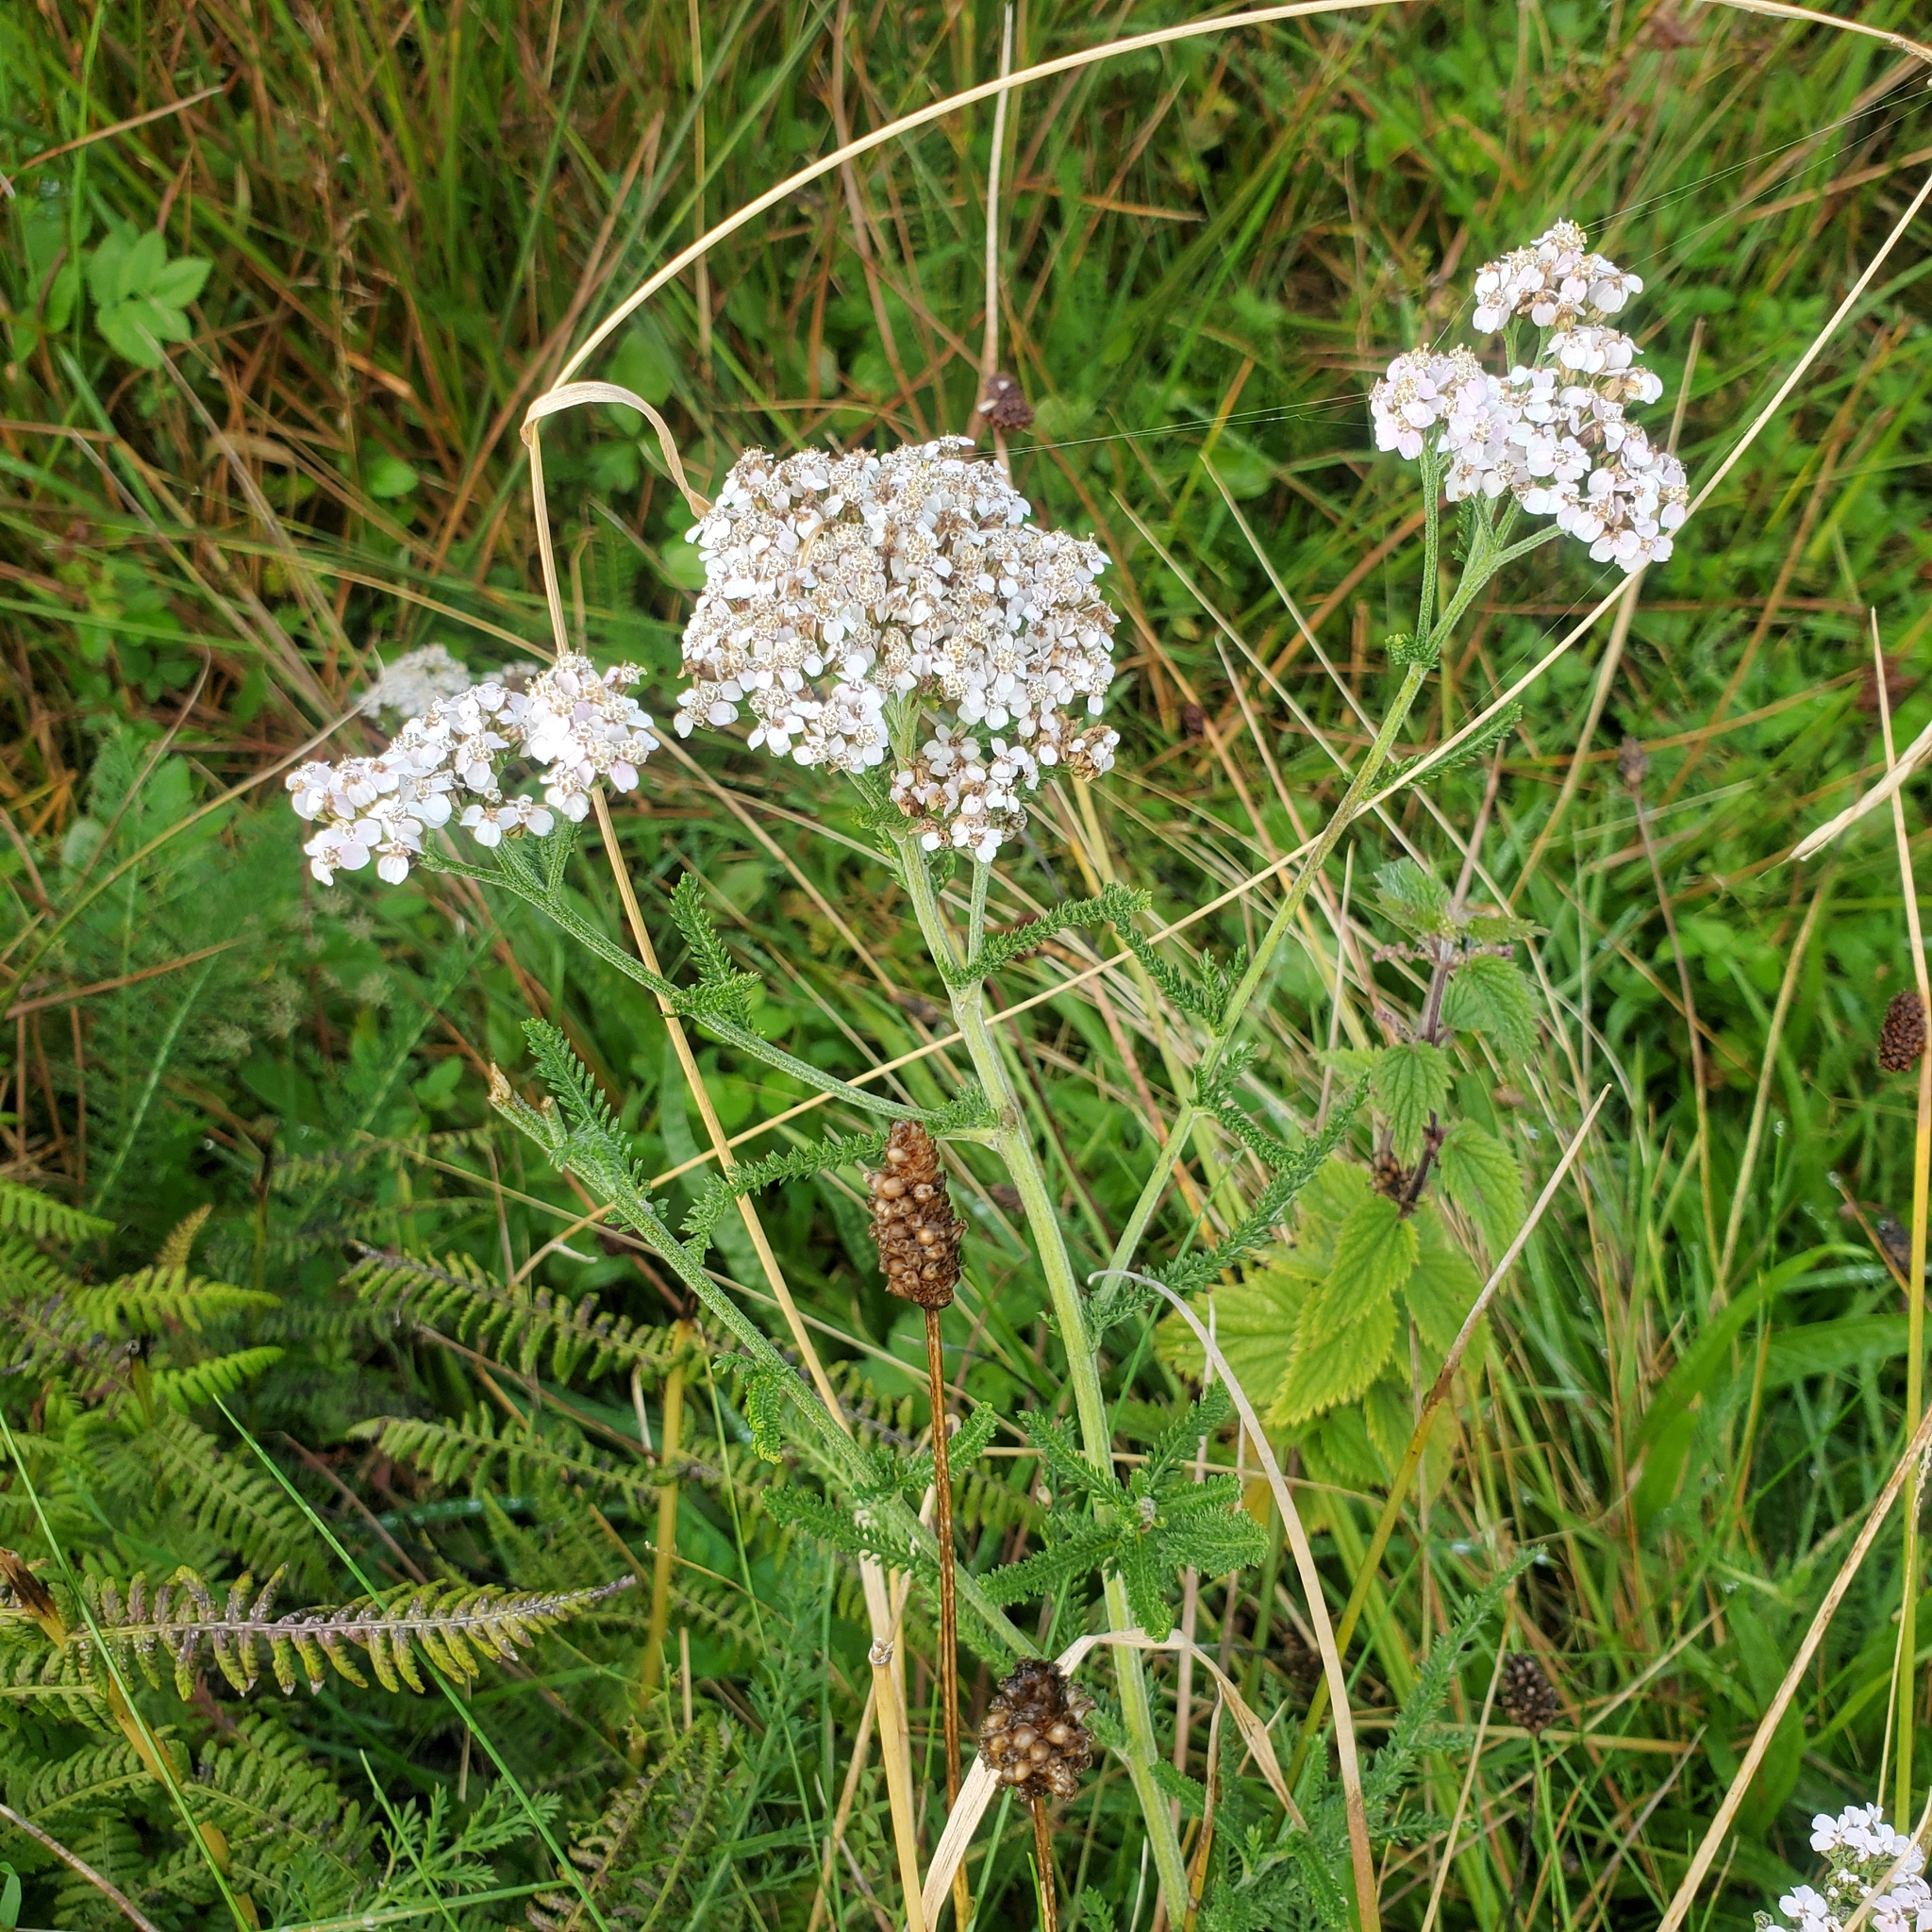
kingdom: Plantae
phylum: Tracheophyta
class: Magnoliopsida
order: Asterales
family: Asteraceae
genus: Achillea
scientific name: Achillea millefolium
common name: Yarrow
